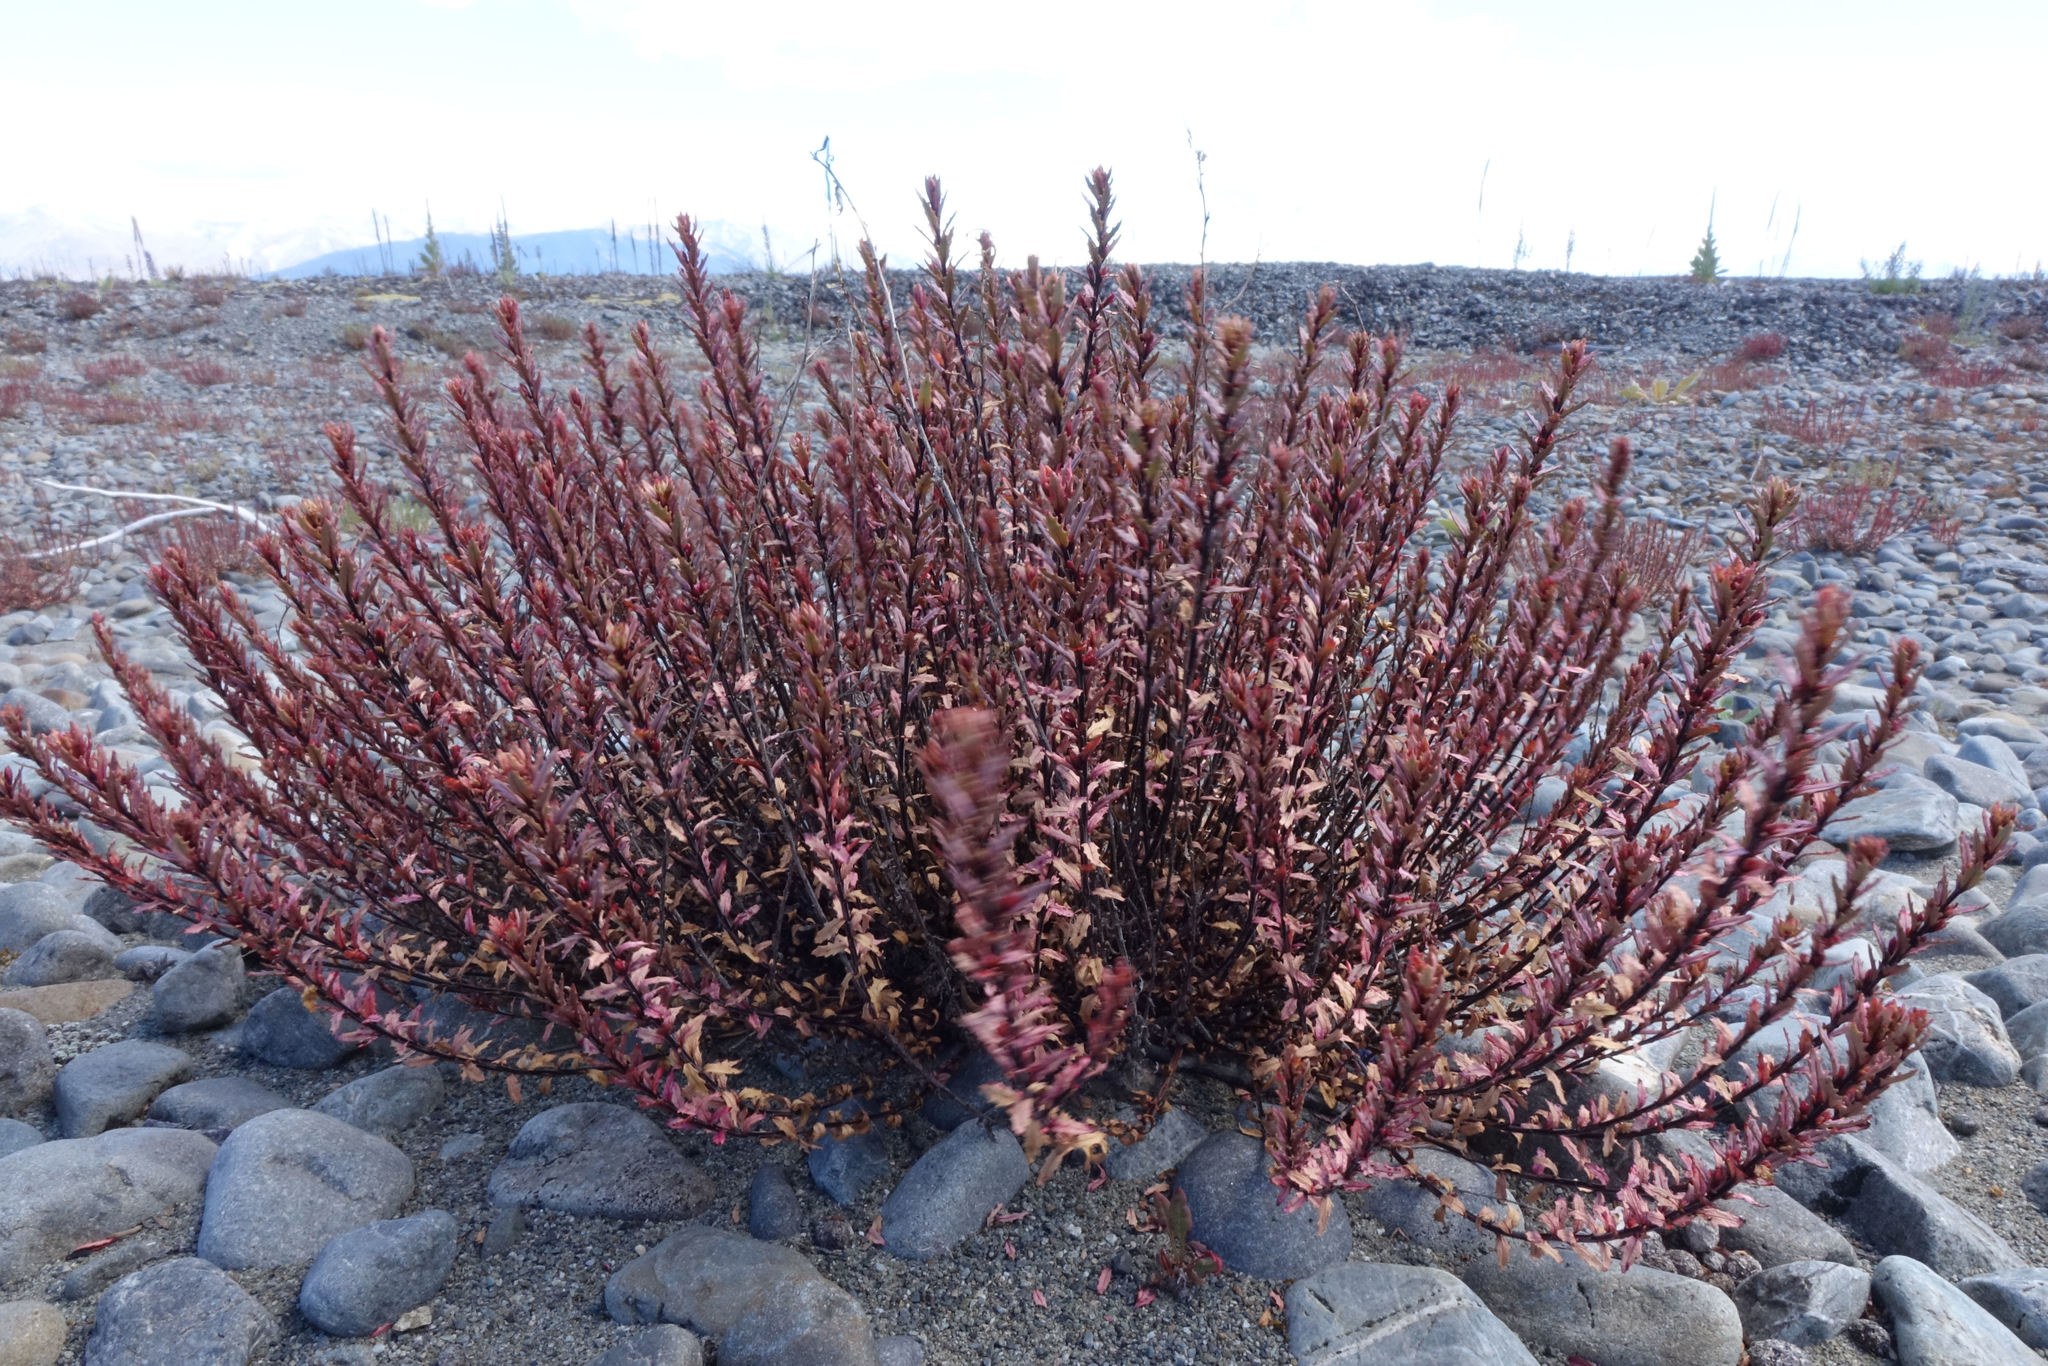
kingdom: Plantae
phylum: Tracheophyta
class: Magnoliopsida
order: Myrtales
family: Onagraceae
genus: Epilobium
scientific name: Epilobium melanocaulon
